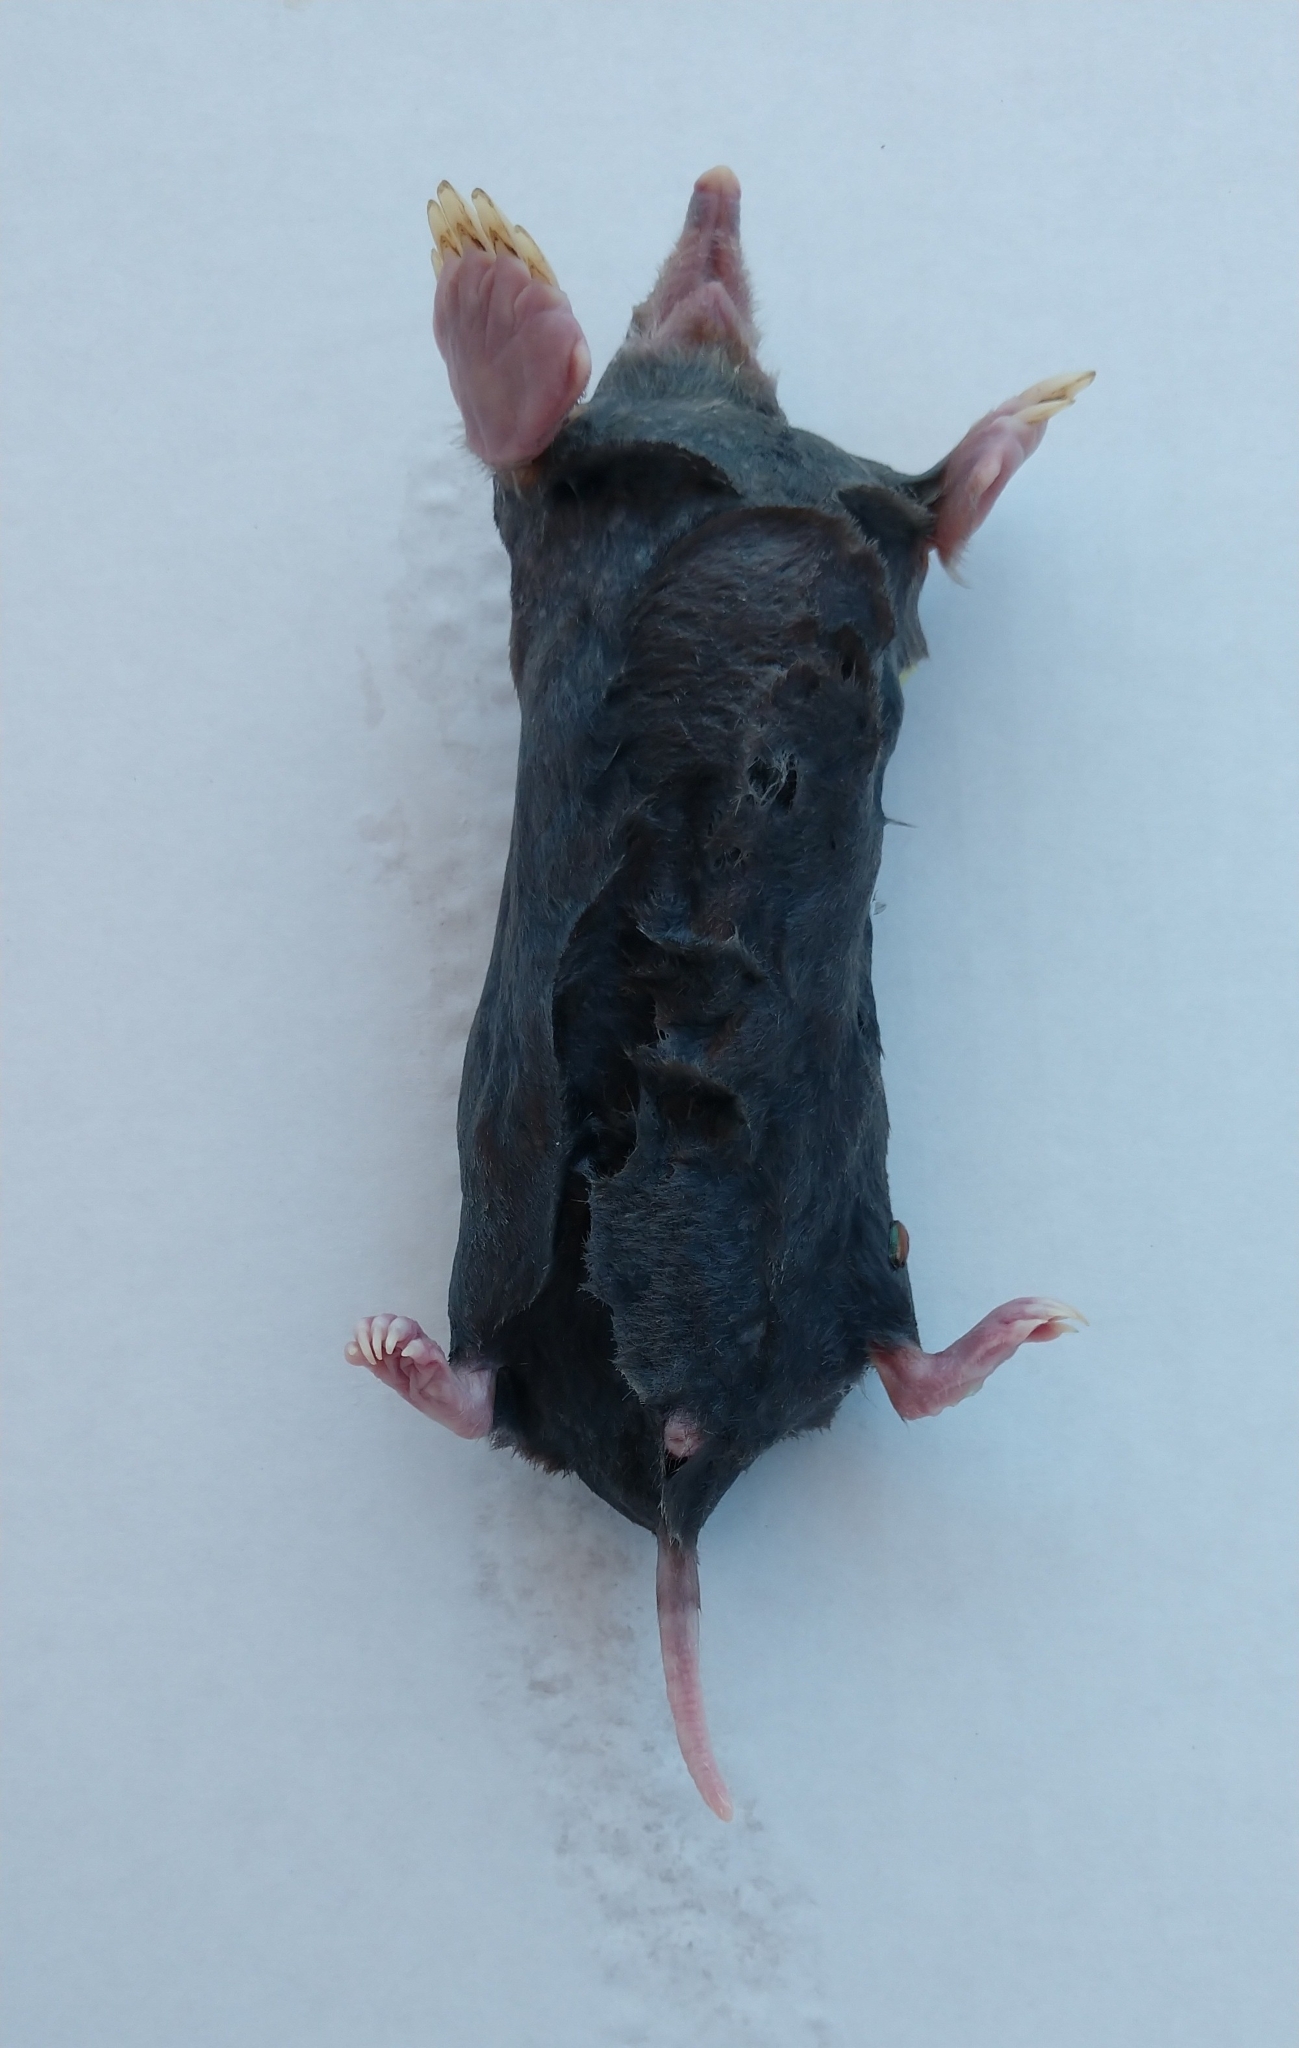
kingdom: Animalia
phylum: Chordata
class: Mammalia
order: Soricomorpha
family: Talpidae
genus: Scalopus
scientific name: Scalopus aquaticus
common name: Eastern mole
